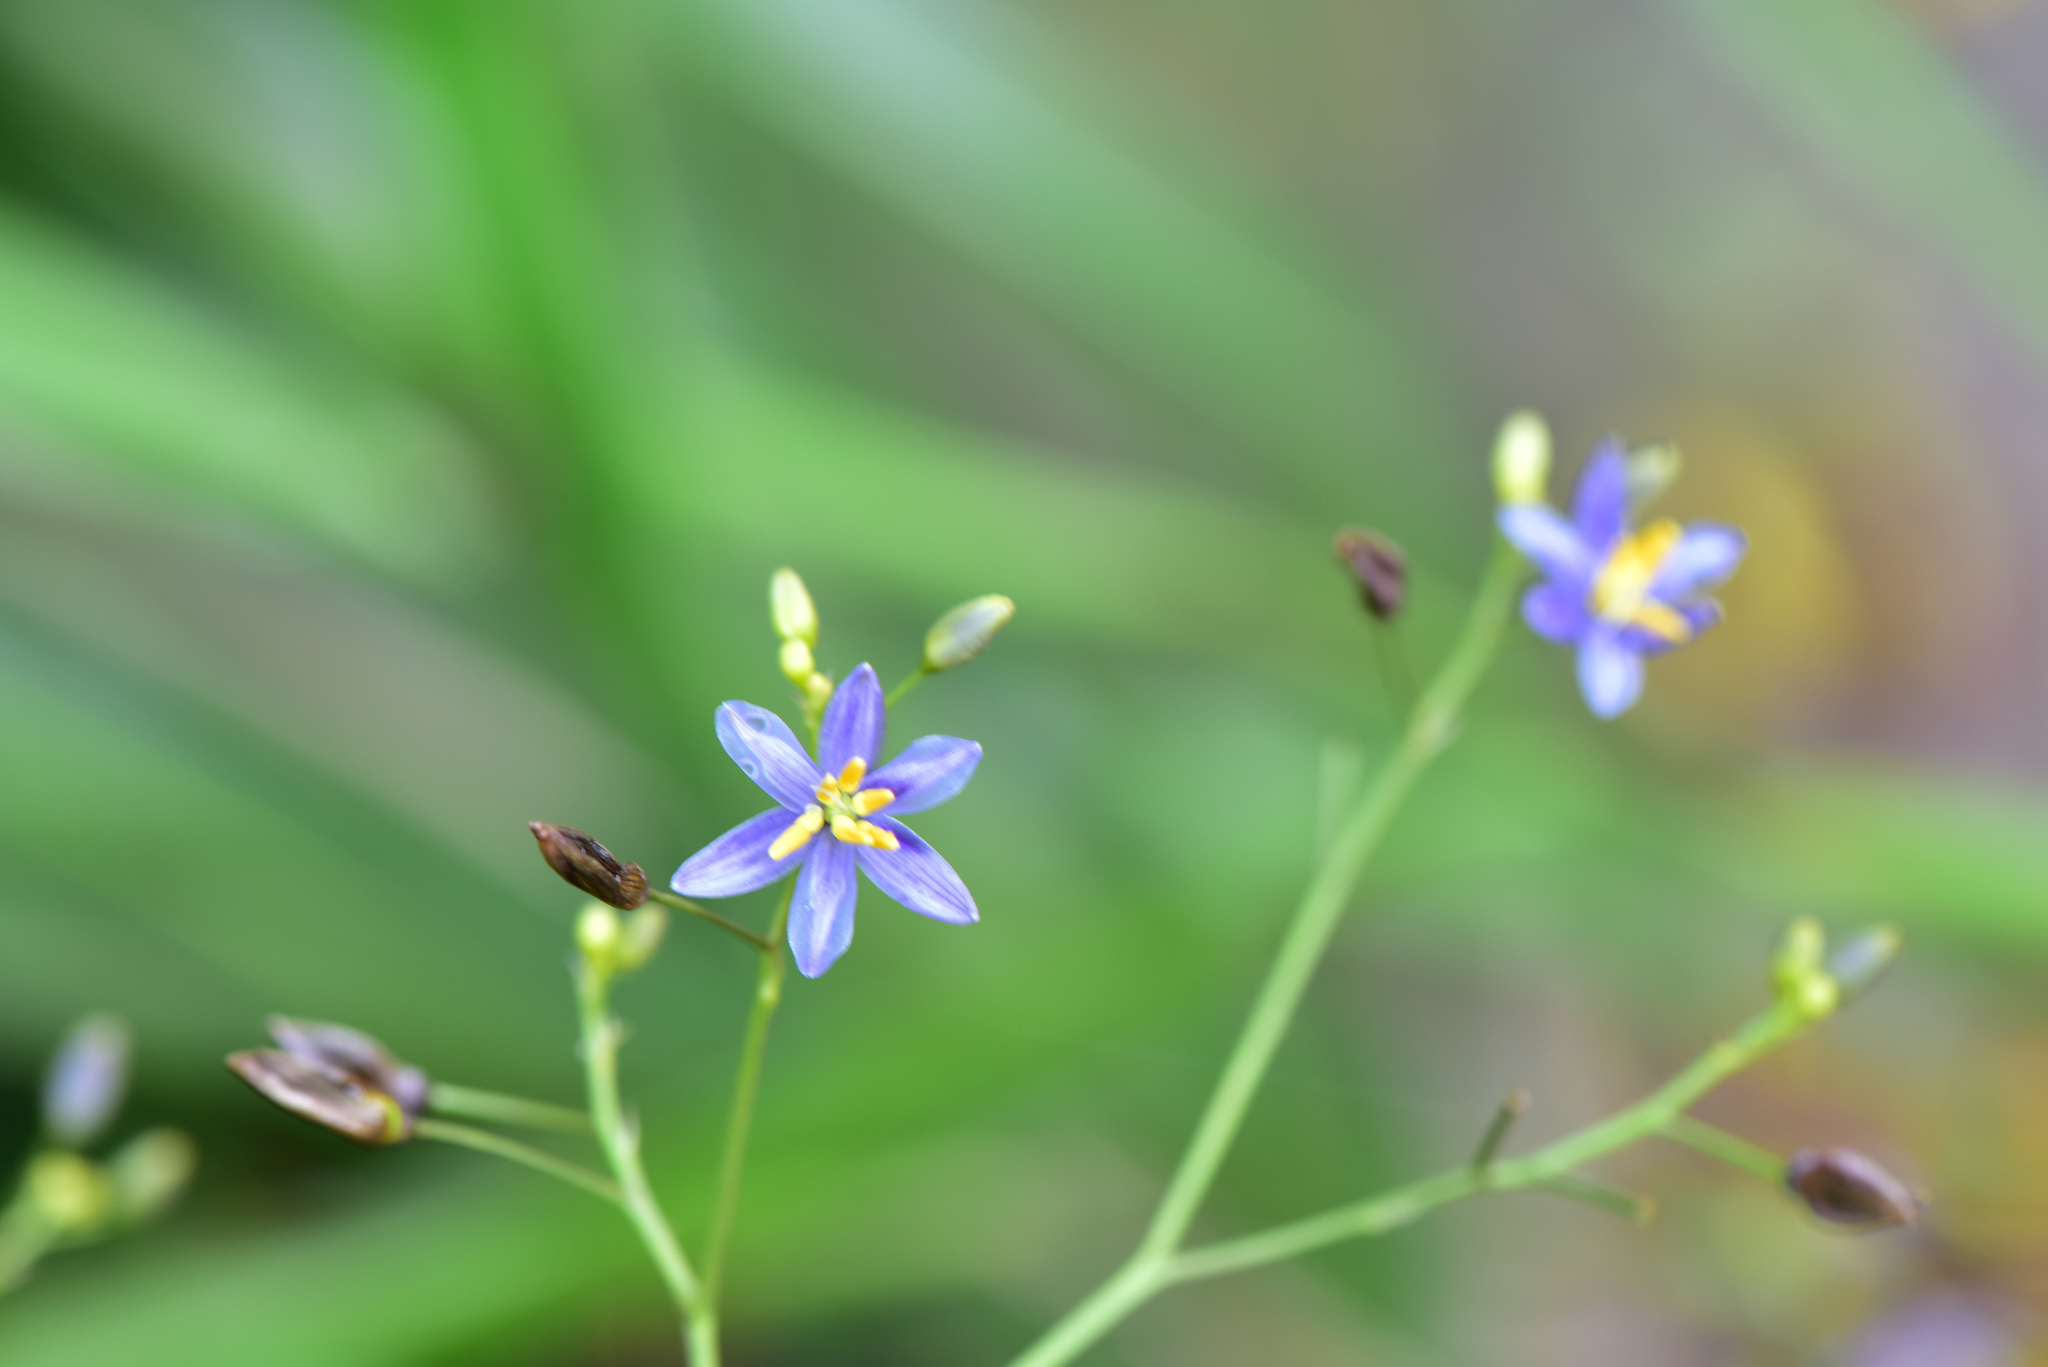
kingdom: Plantae
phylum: Tracheophyta
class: Liliopsida
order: Asparagales
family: Asphodelaceae
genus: Dianella
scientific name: Dianella ensifolia
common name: New zealand lilyplant
